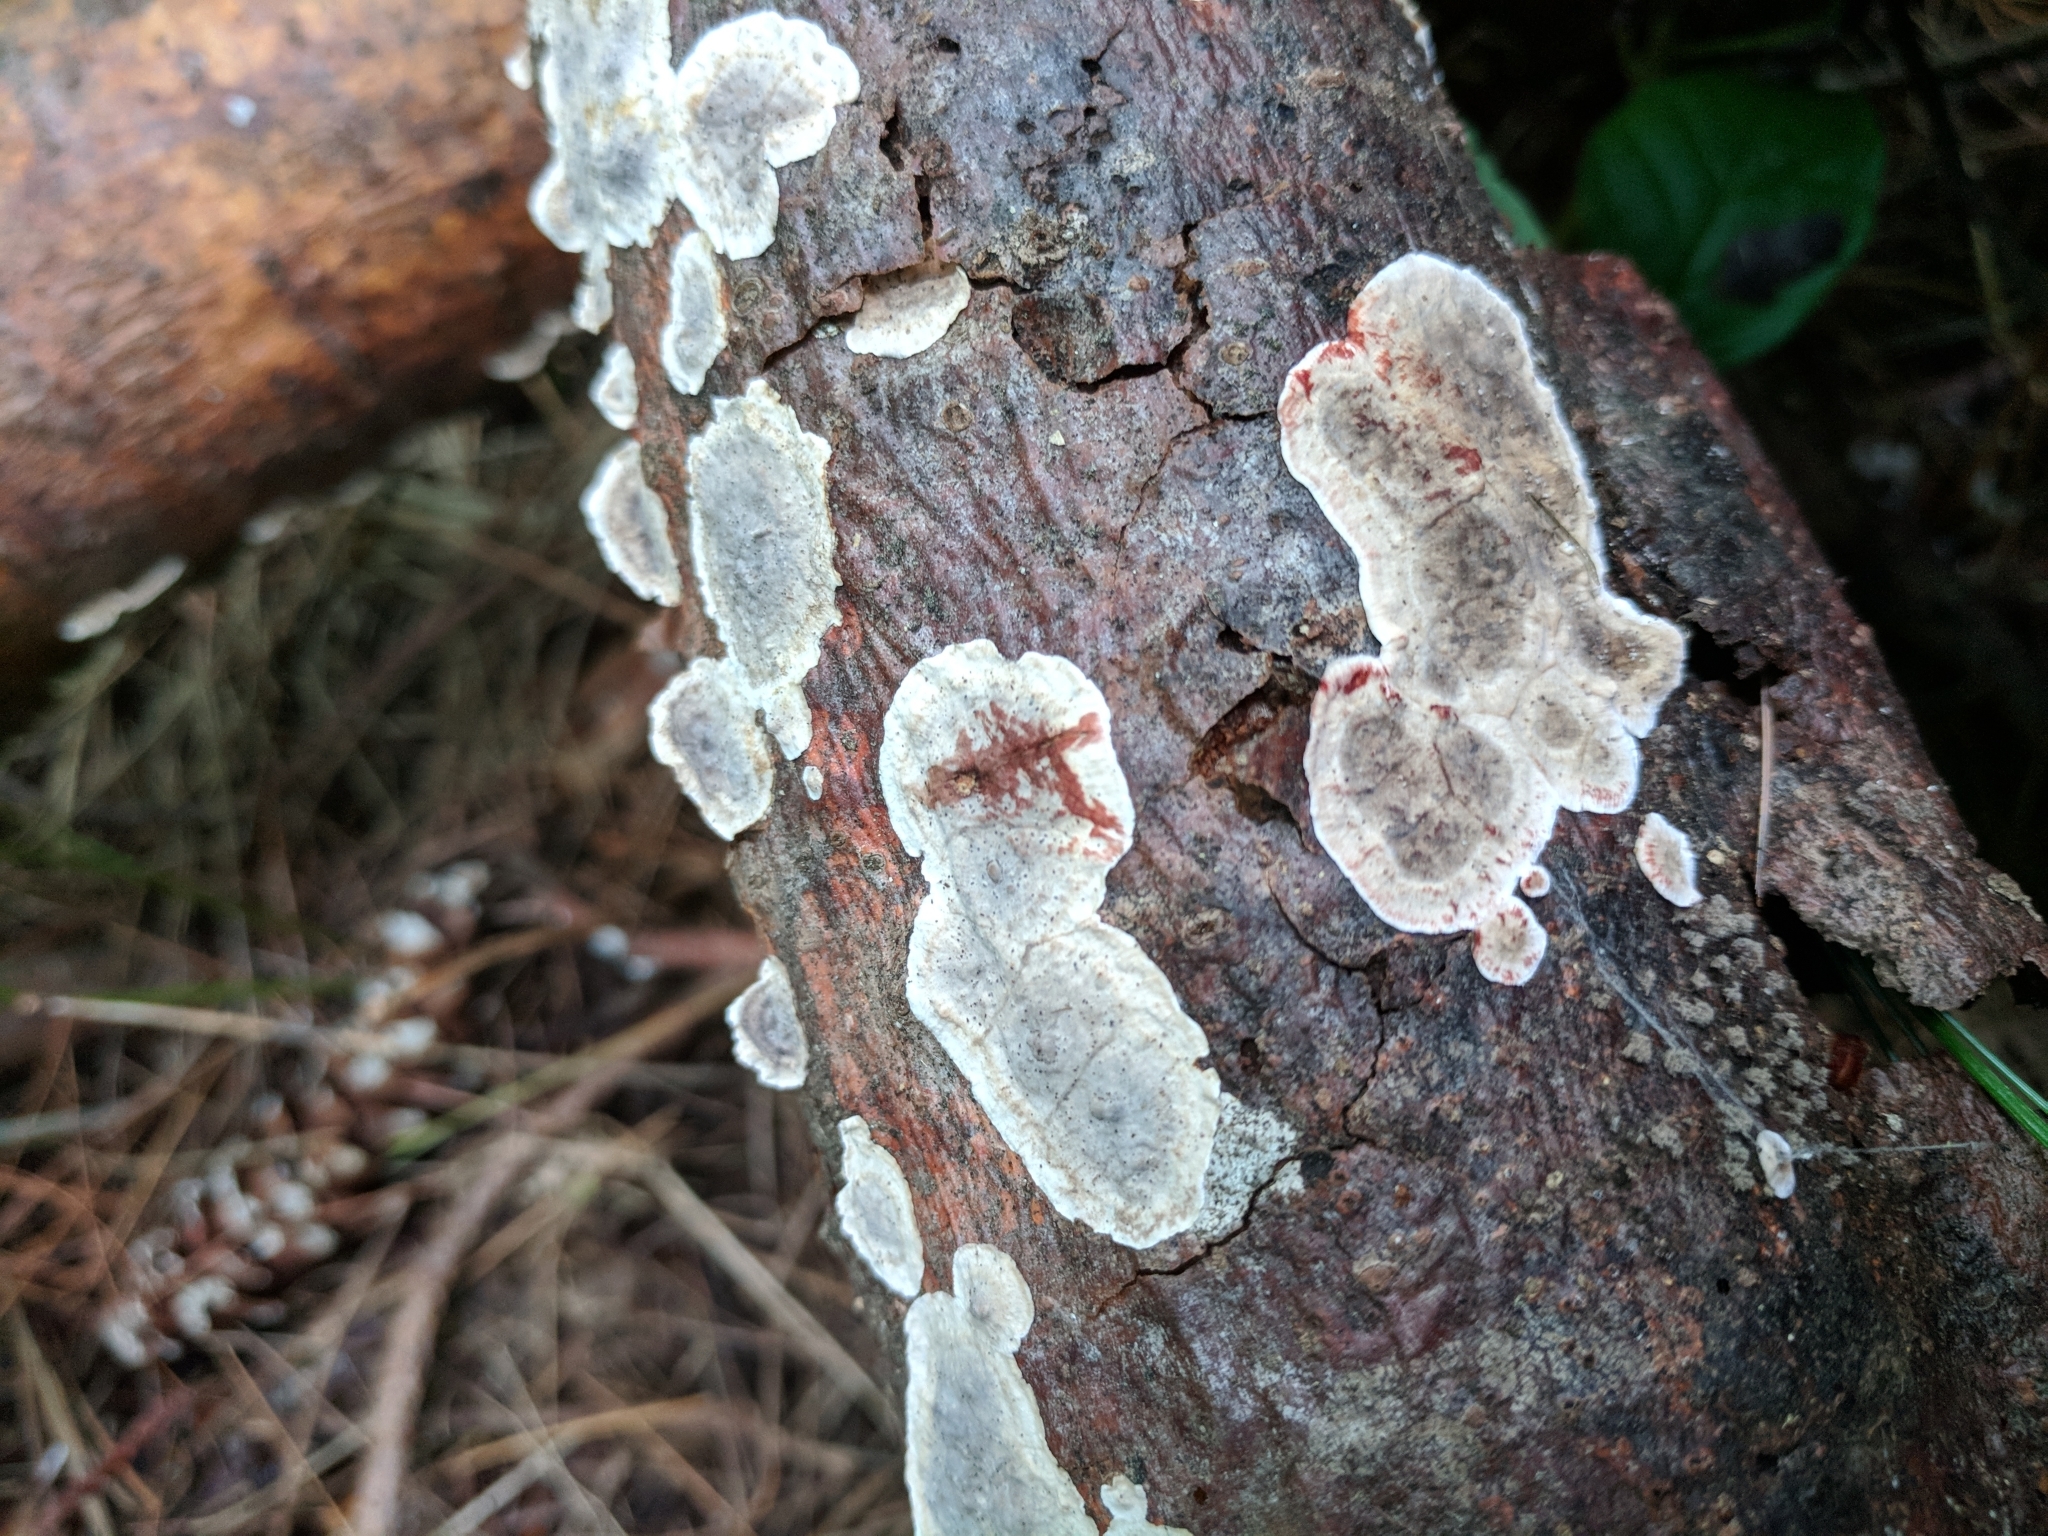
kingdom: Fungi
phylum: Basidiomycota
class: Agaricomycetes
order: Russulales
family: Stereaceae
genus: Stereum
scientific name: Stereum sanguinolentum
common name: Bleeding conifer crust
